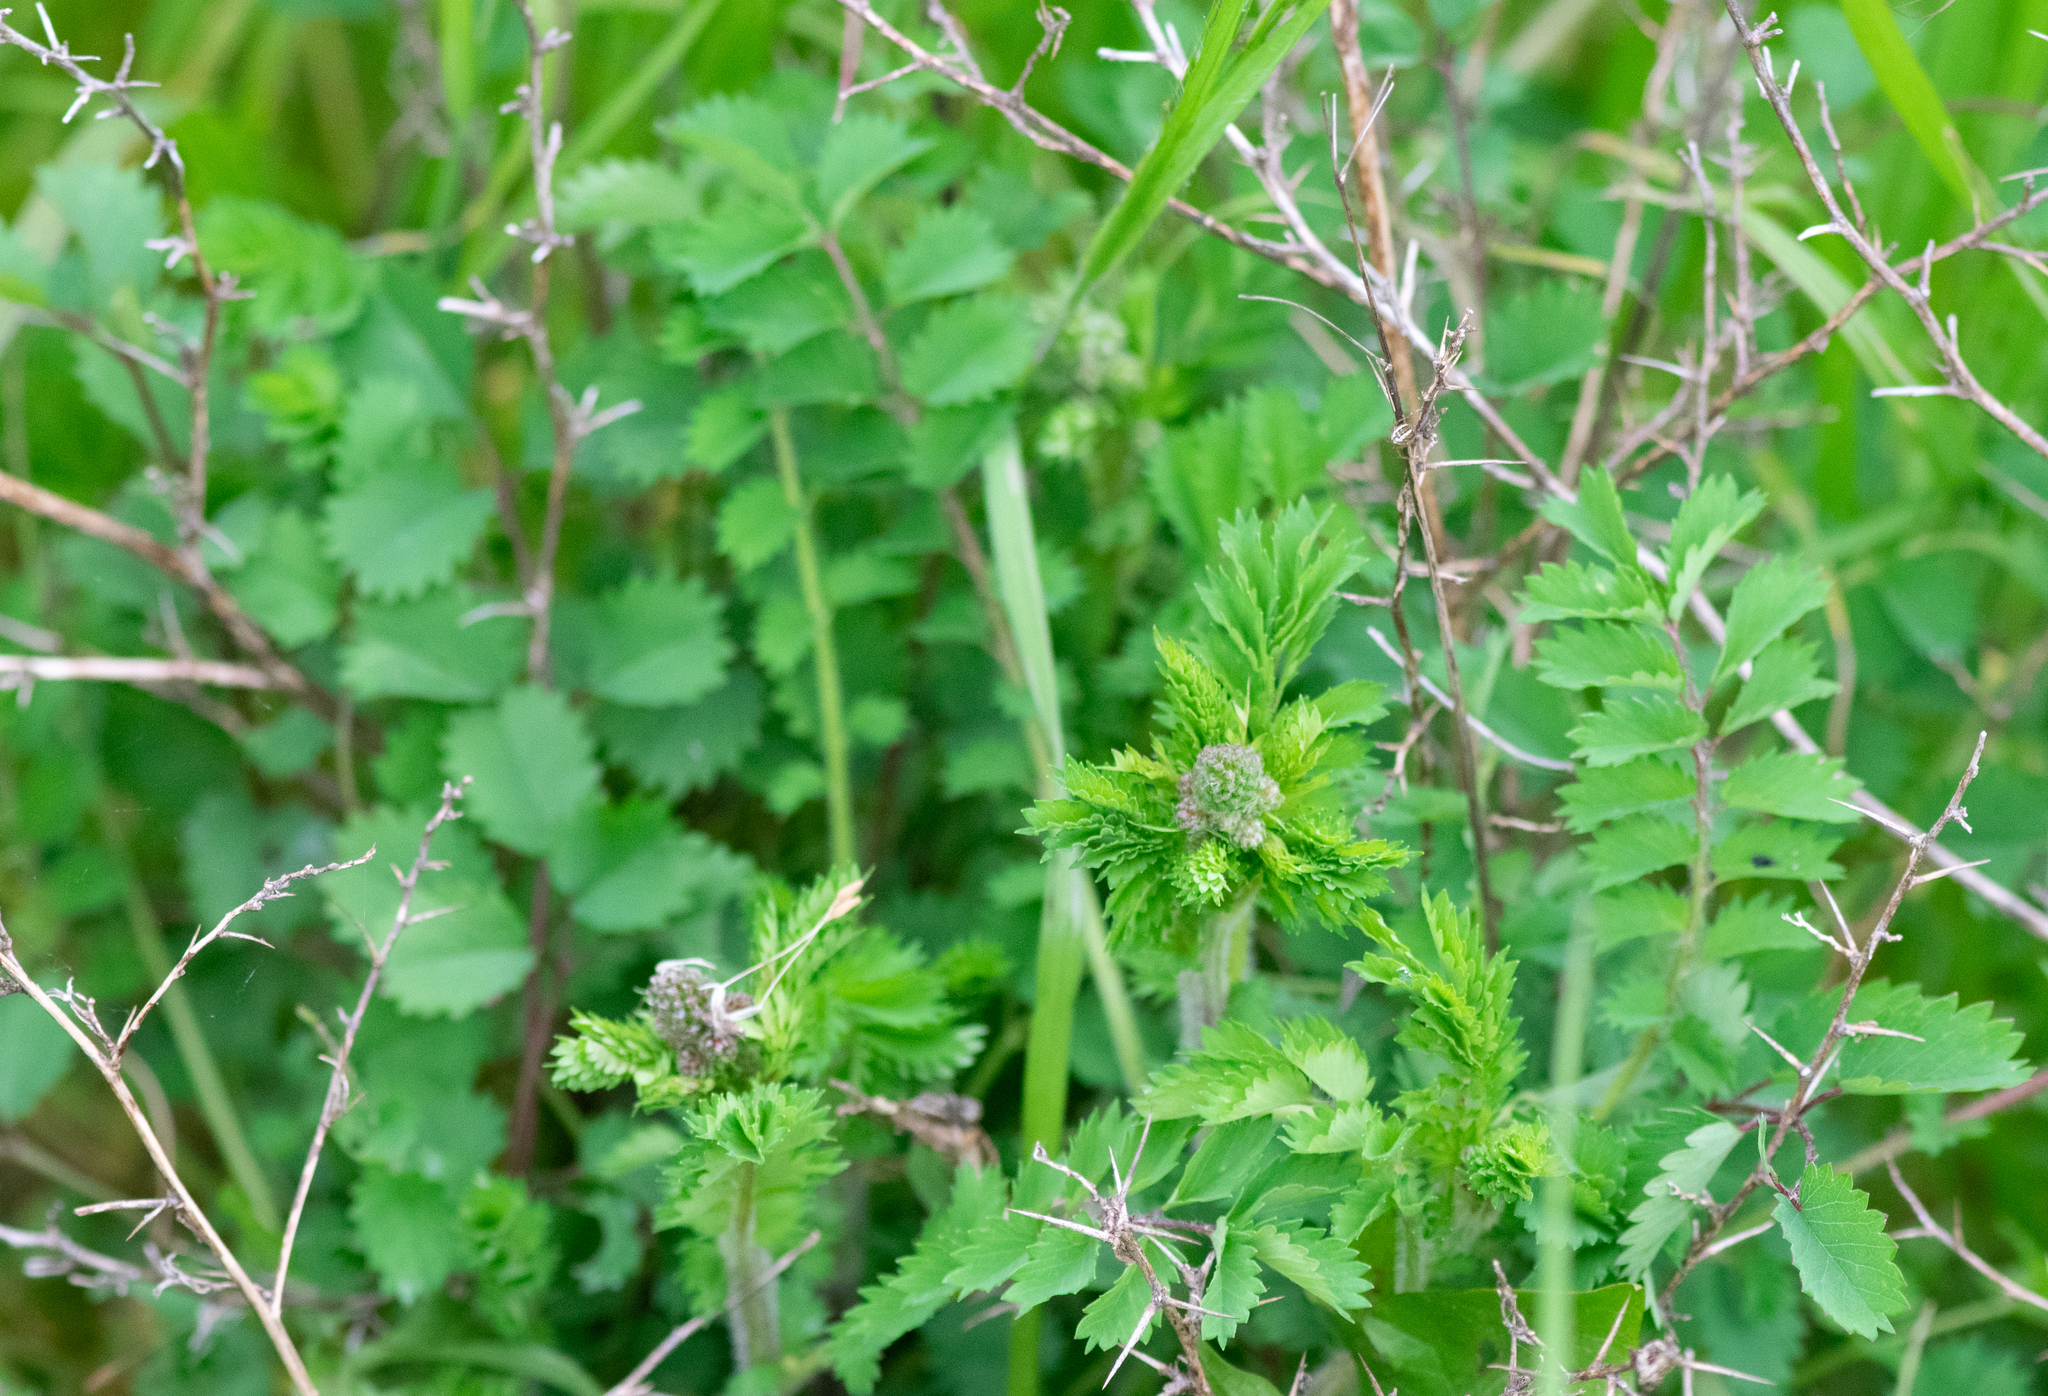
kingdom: Plantae
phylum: Tracheophyta
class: Magnoliopsida
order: Rosales
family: Rosaceae
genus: Poterium
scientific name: Poterium sanguisorba
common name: Salad burnet
